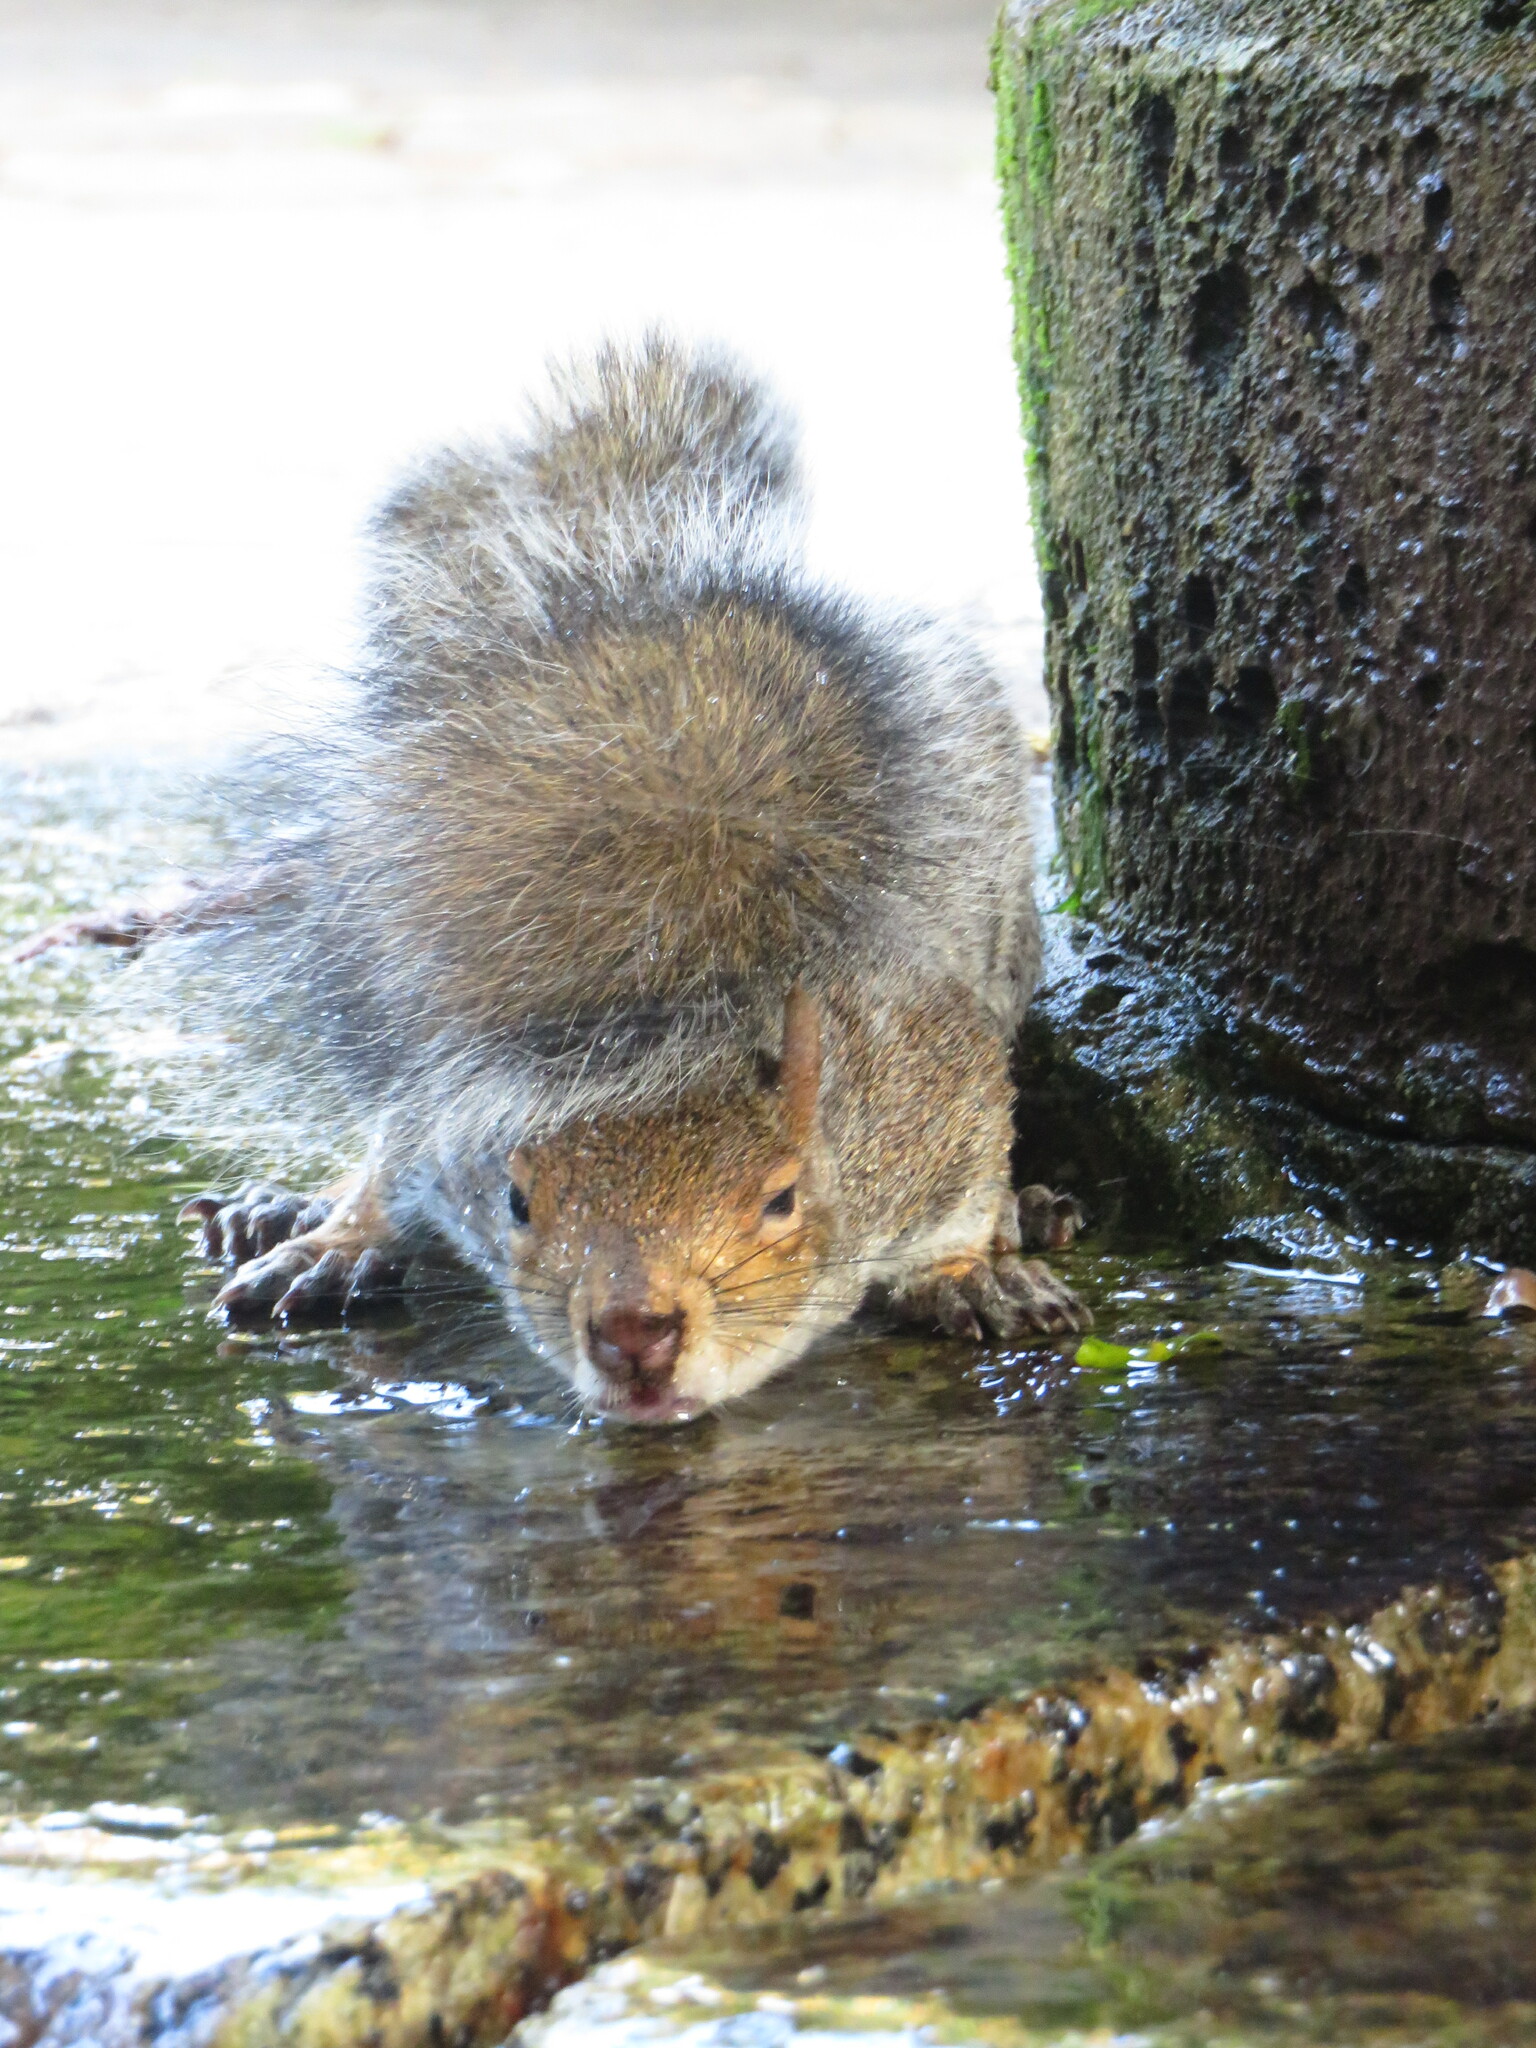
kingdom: Animalia
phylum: Chordata
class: Mammalia
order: Rodentia
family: Sciuridae
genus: Sciurus
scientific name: Sciurus carolinensis
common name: Eastern gray squirrel
